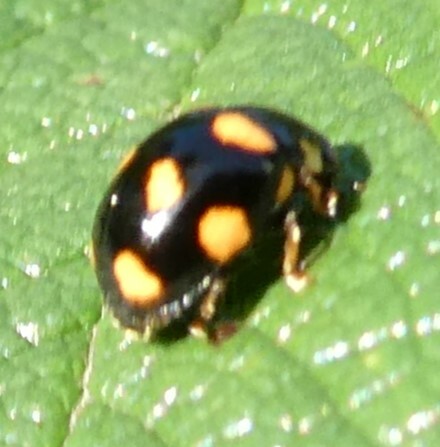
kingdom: Animalia
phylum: Arthropoda
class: Insecta
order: Coleoptera
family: Coccinellidae
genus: Brachiacantha
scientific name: Brachiacantha ursina
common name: Ursine spurleg lady beetle
